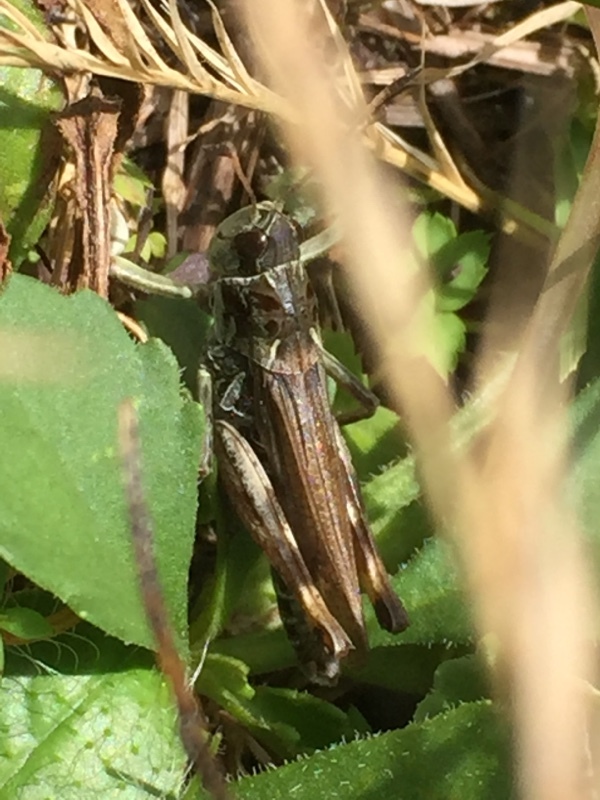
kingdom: Animalia
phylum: Arthropoda
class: Insecta
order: Orthoptera
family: Acrididae
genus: Gomphocerus
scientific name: Gomphocerus sibiricus
